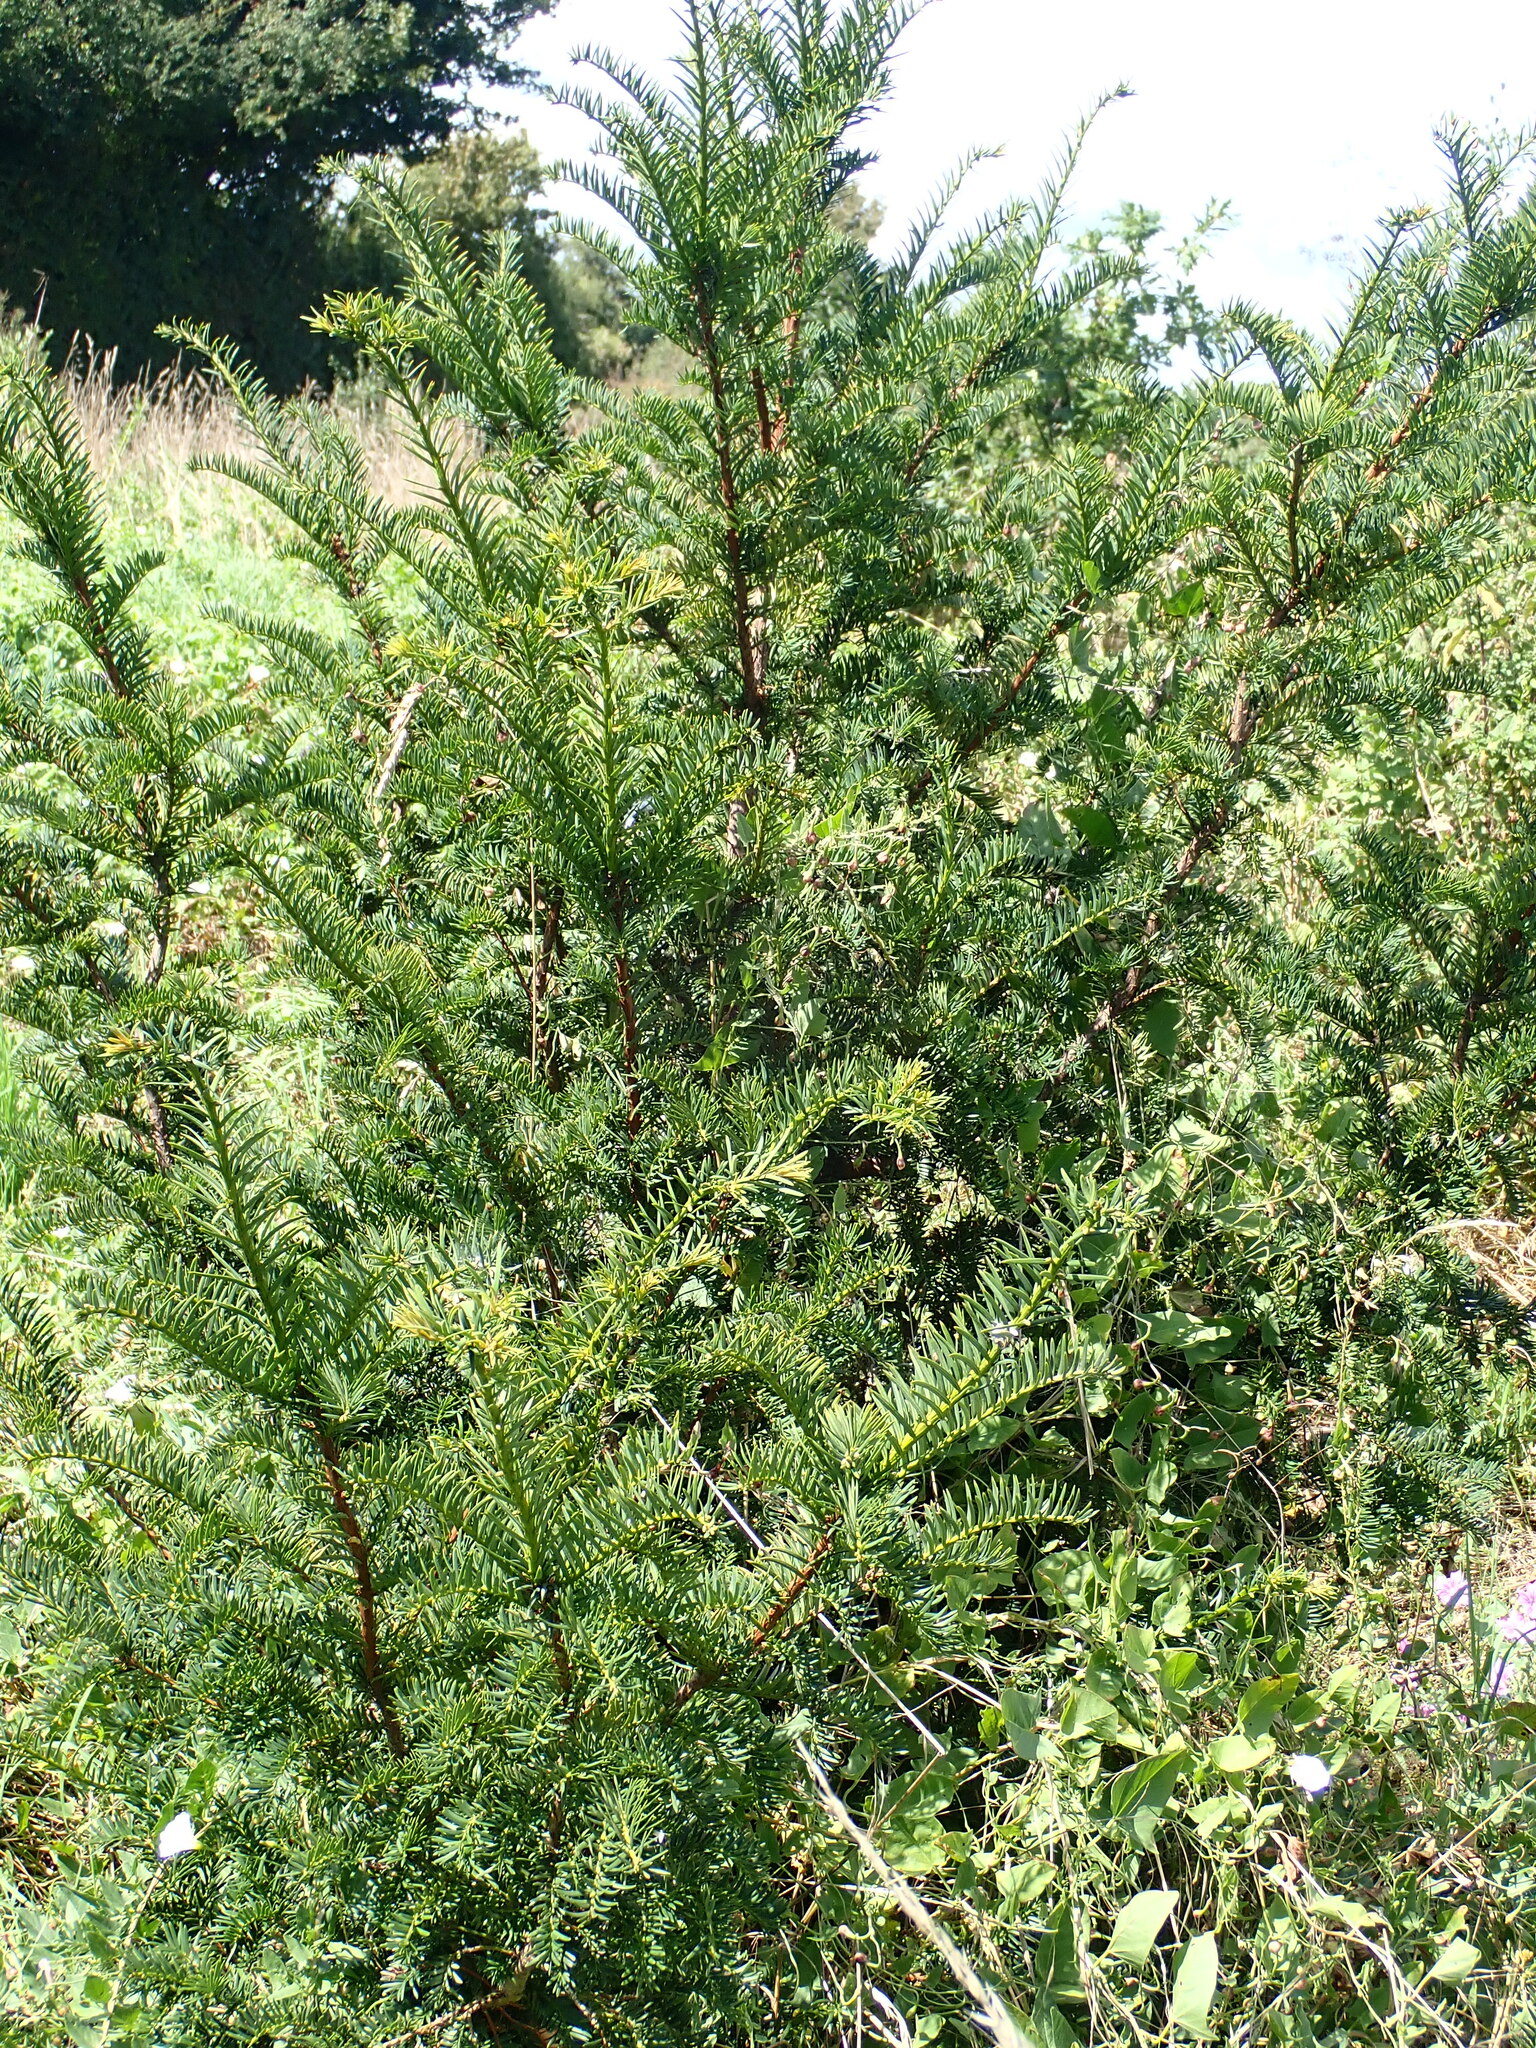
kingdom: Plantae
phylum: Tracheophyta
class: Pinopsida
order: Pinales
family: Taxaceae
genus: Taxus
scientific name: Taxus baccata
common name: Yew
